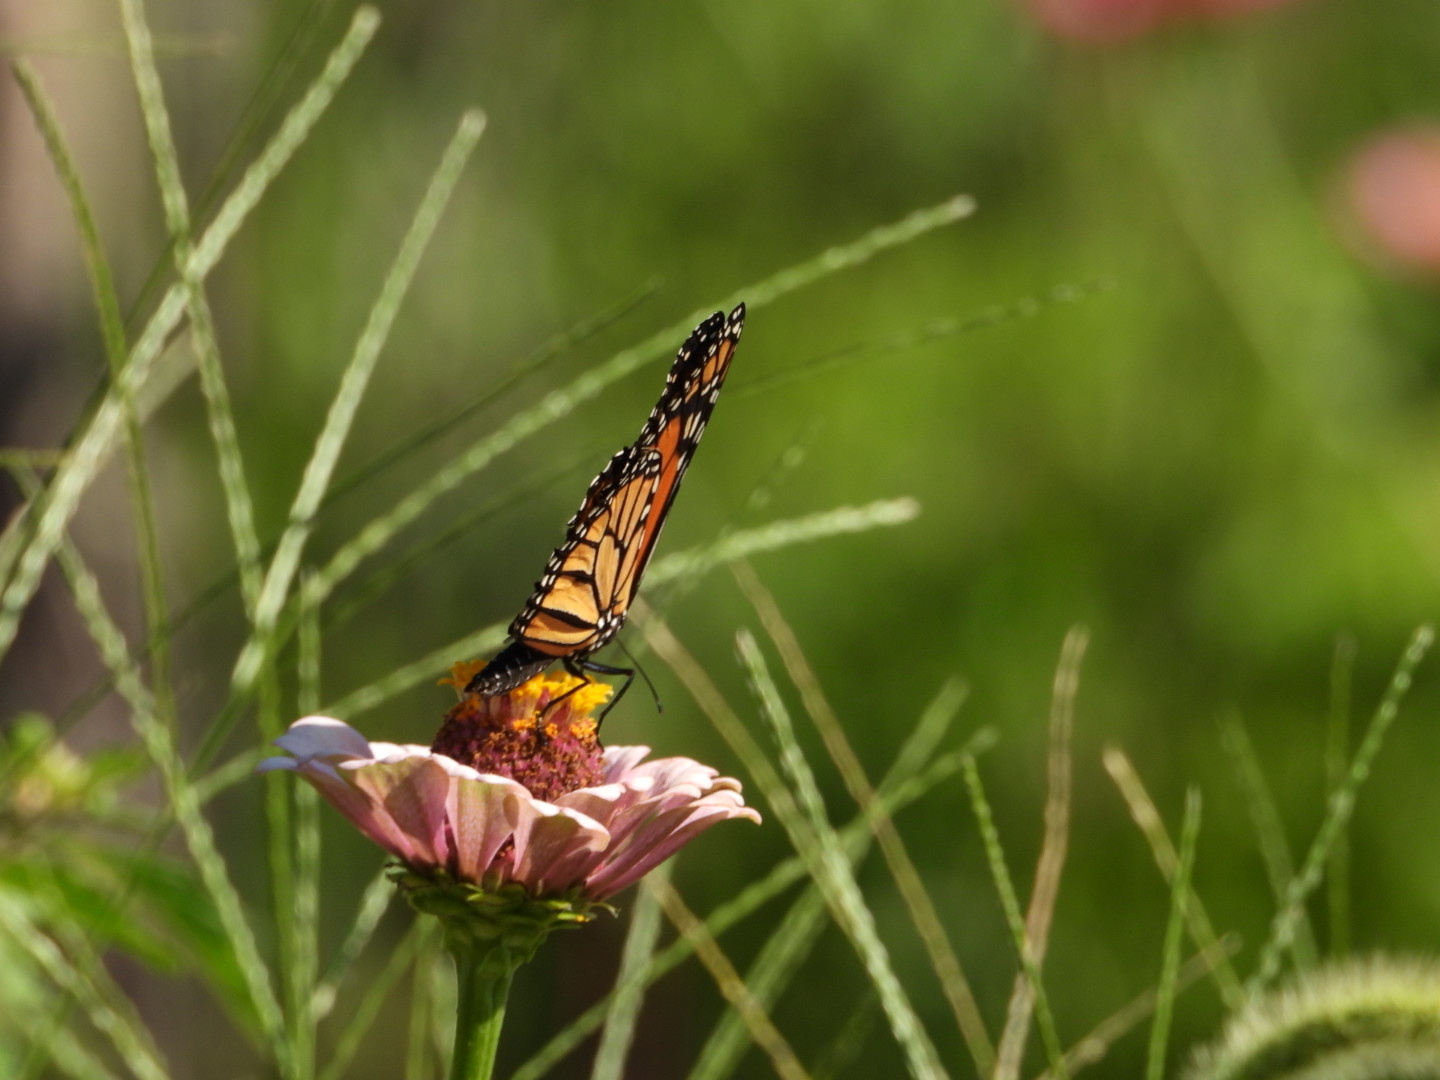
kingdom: Animalia
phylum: Arthropoda
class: Insecta
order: Lepidoptera
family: Nymphalidae
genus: Danaus
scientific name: Danaus plexippus
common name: Monarch
